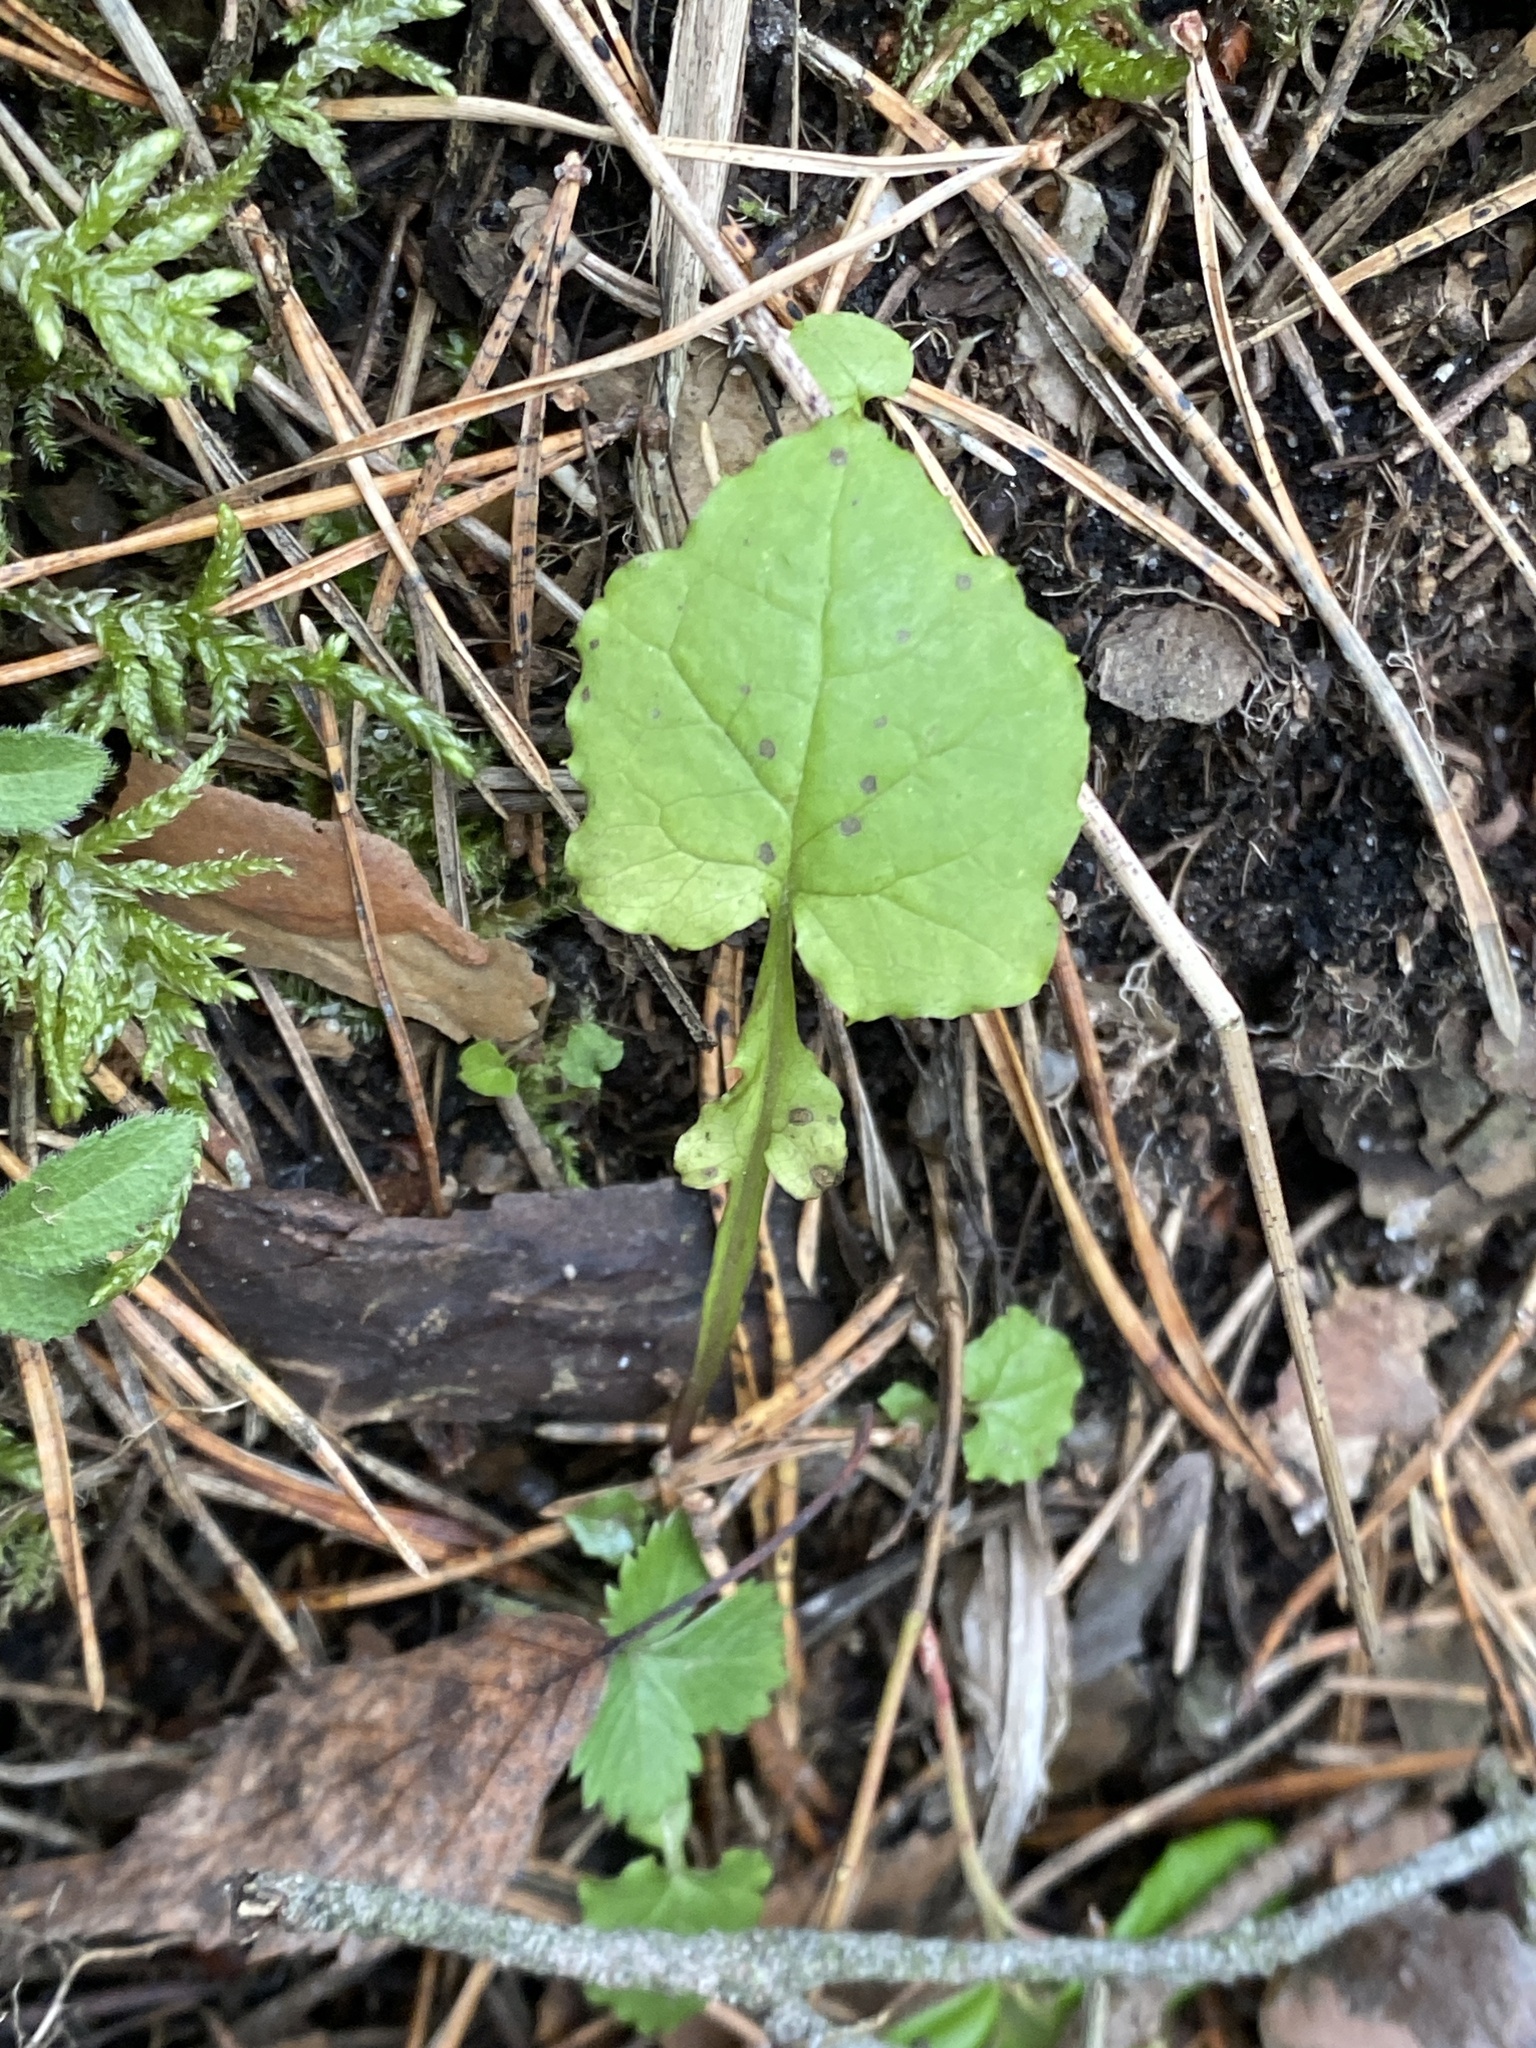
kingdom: Plantae
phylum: Tracheophyta
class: Magnoliopsida
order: Asterales
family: Asteraceae
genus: Mycelis
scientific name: Mycelis muralis
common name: Wall lettuce
